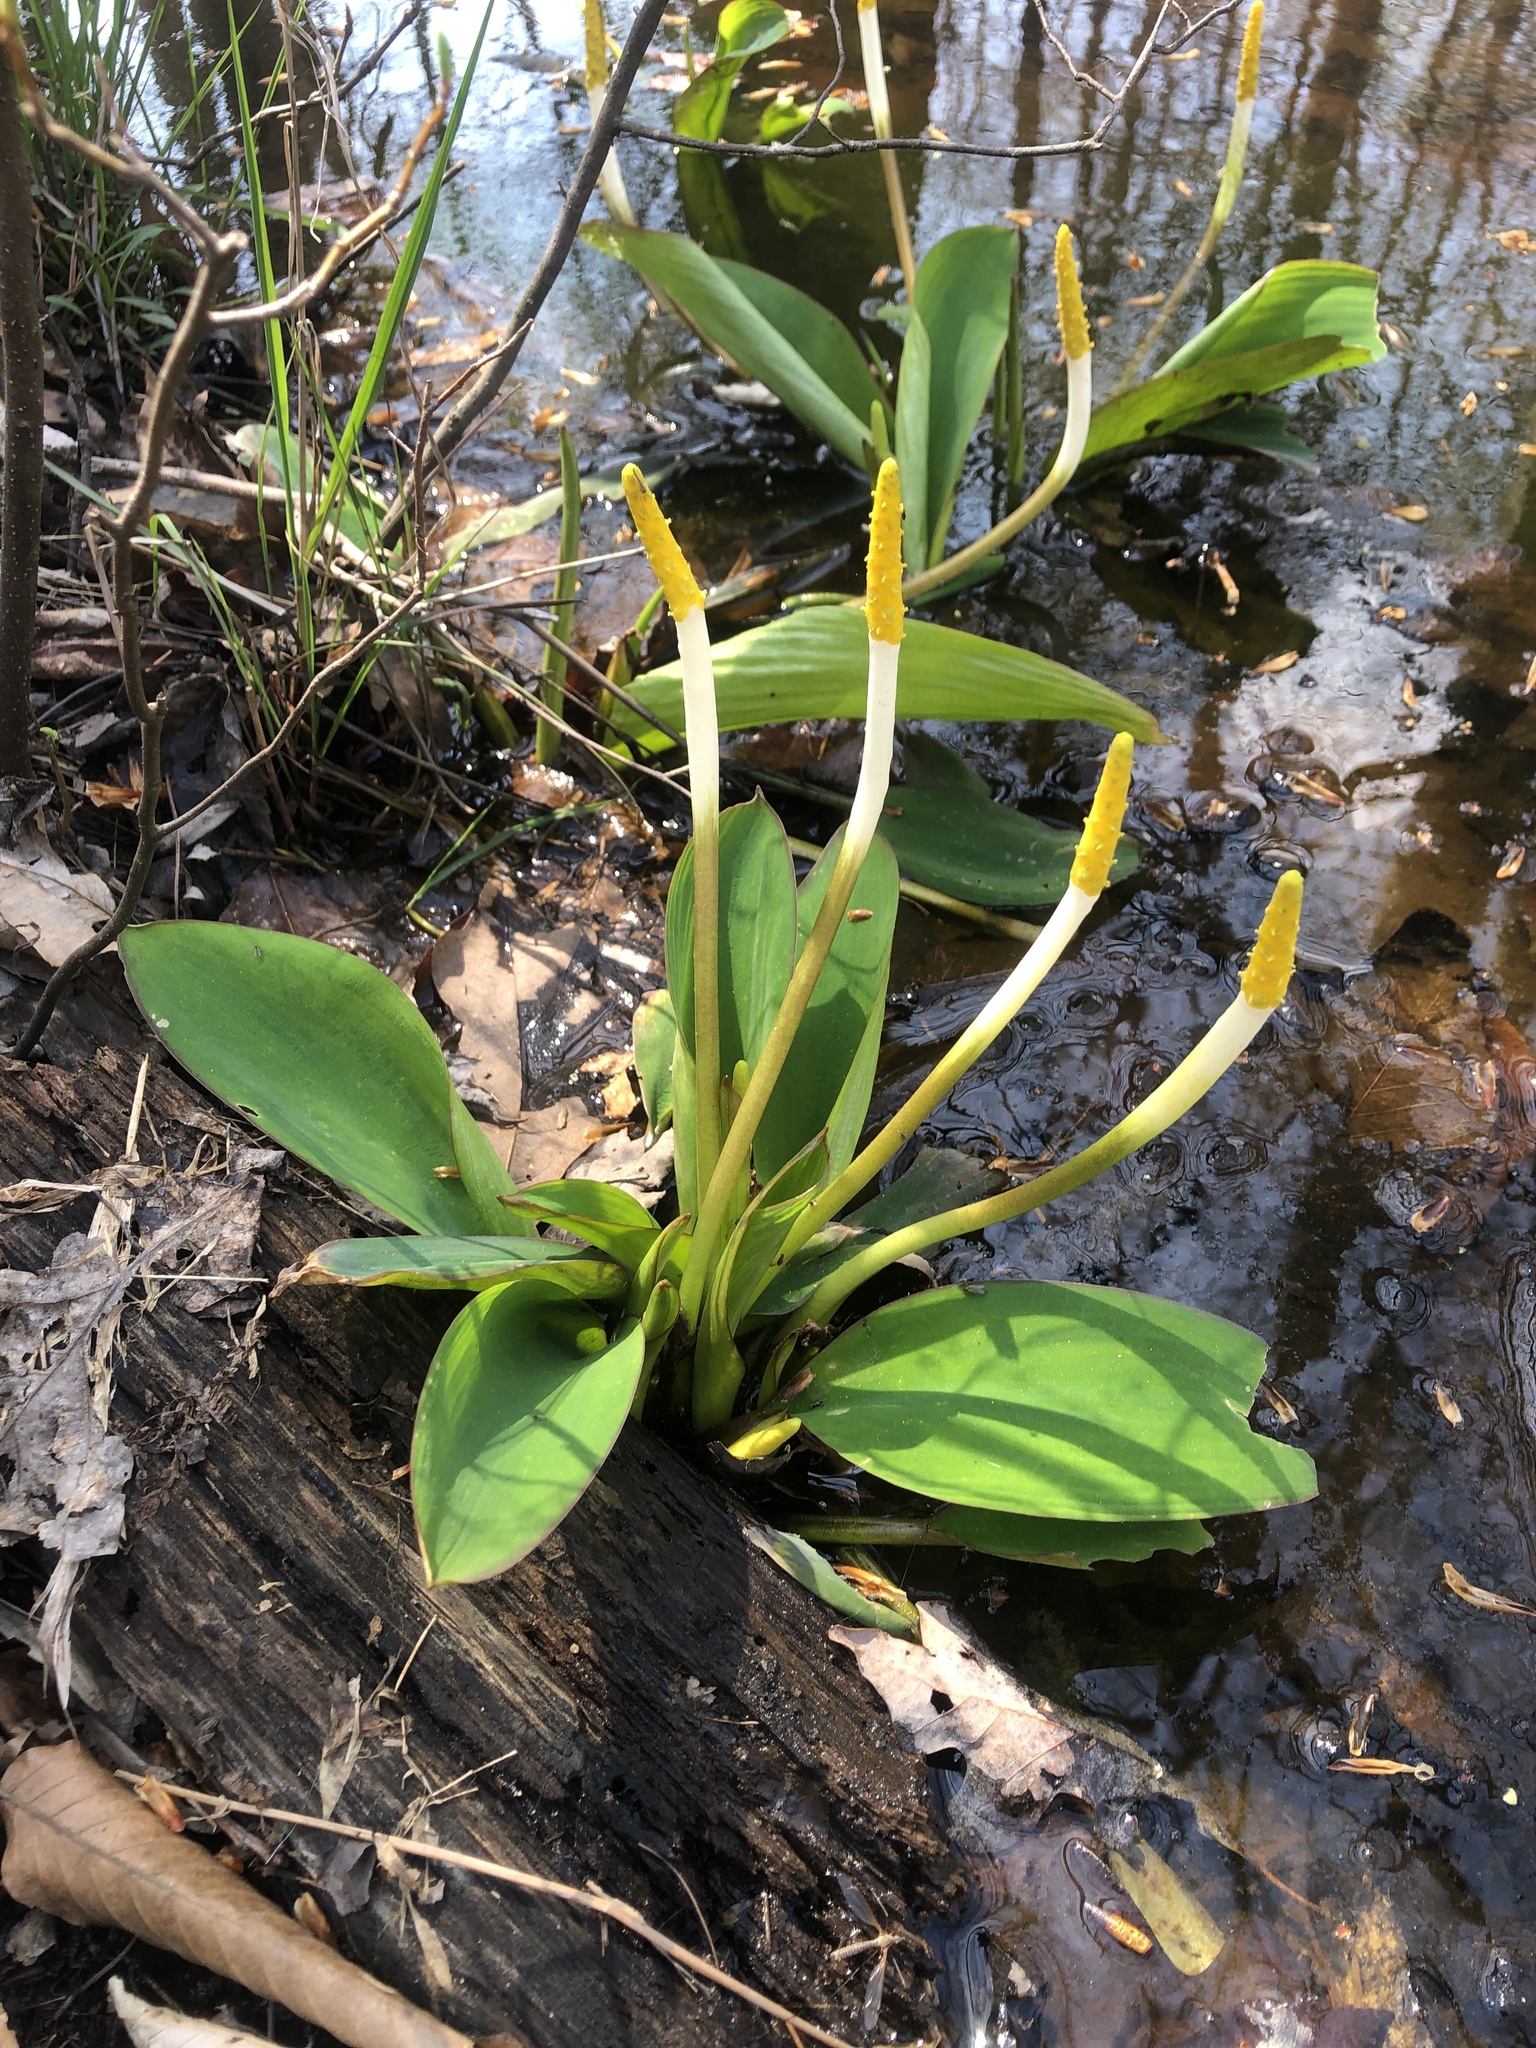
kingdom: Plantae
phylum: Tracheophyta
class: Liliopsida
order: Alismatales
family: Araceae
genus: Orontium
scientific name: Orontium aquaticum
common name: Golden-club
